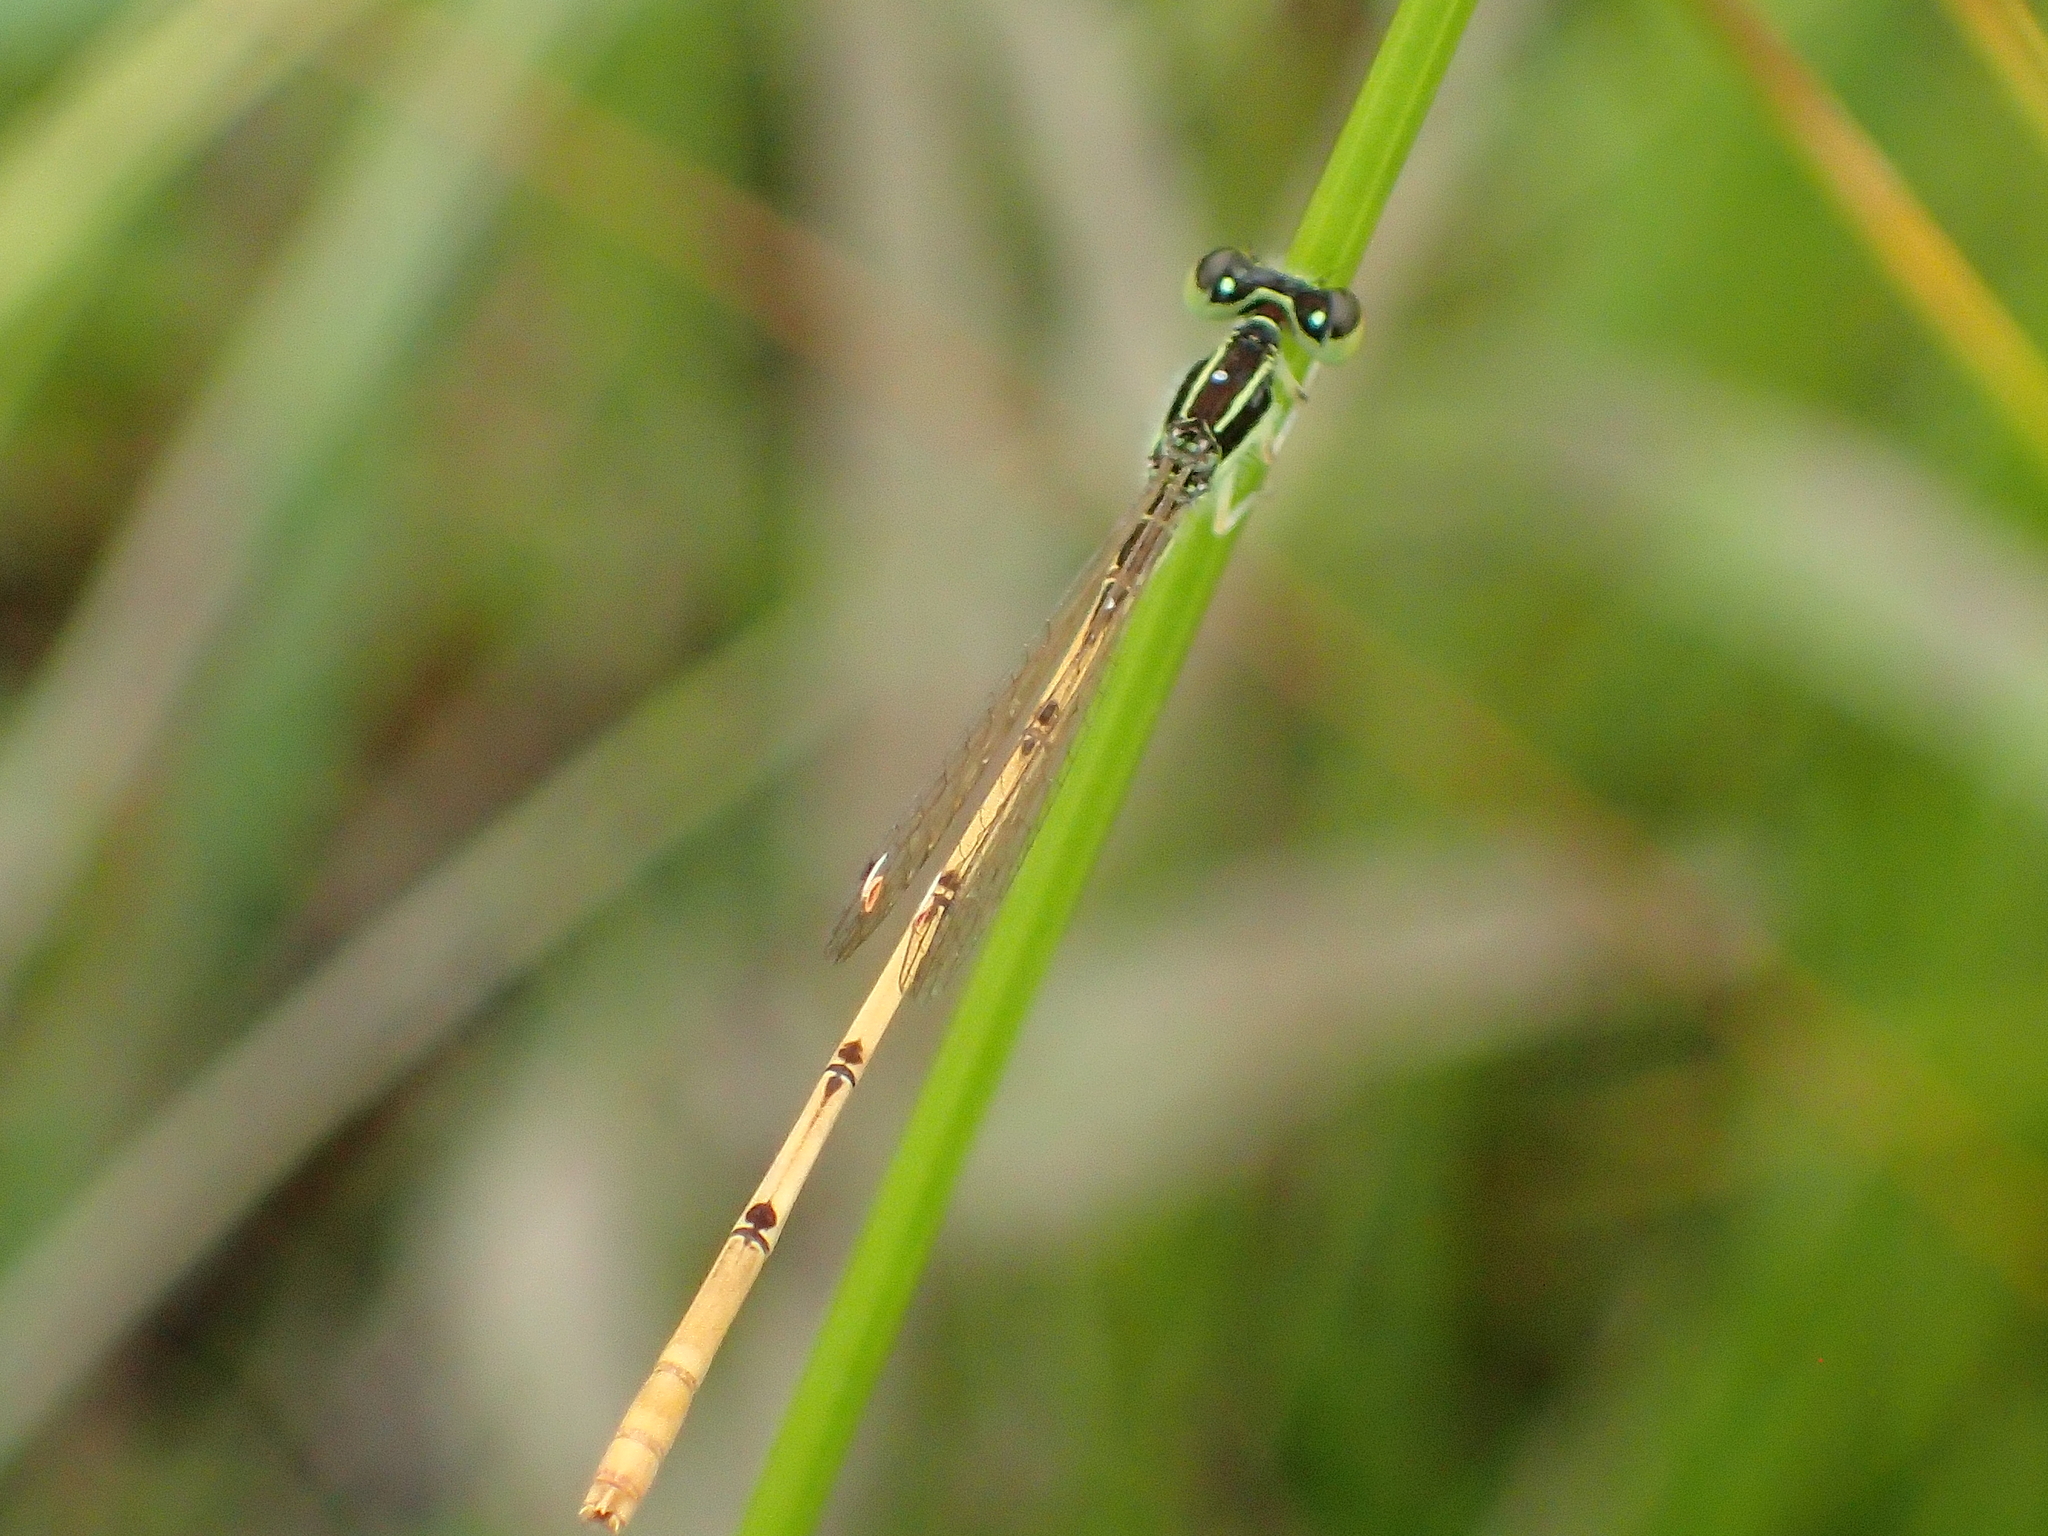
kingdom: Animalia
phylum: Arthropoda
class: Insecta
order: Odonata
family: Coenagrionidae
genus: Ischnura
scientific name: Ischnura hastata
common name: Citrine forktail
